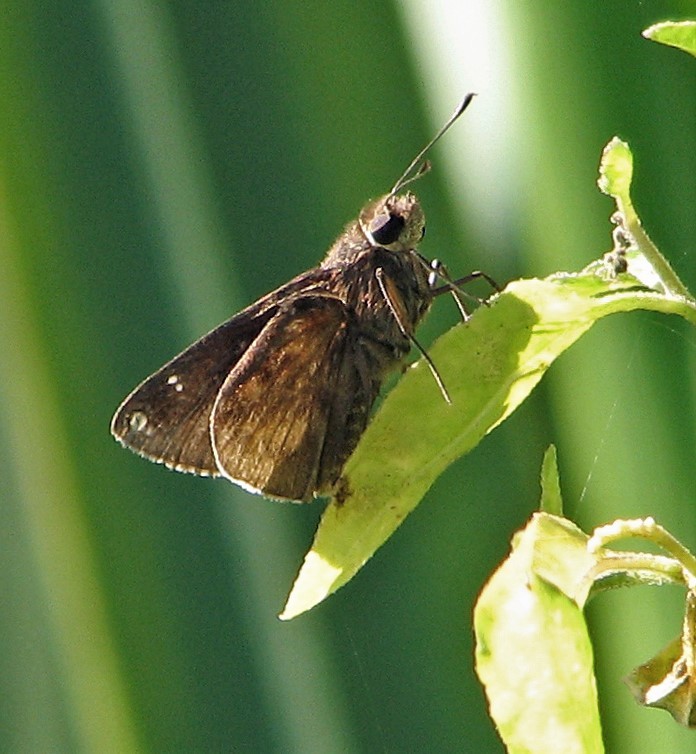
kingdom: Animalia
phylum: Arthropoda
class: Insecta
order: Lepidoptera
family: Hesperiidae
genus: Quinta
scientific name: Quinta cannae
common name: Canna skipper
